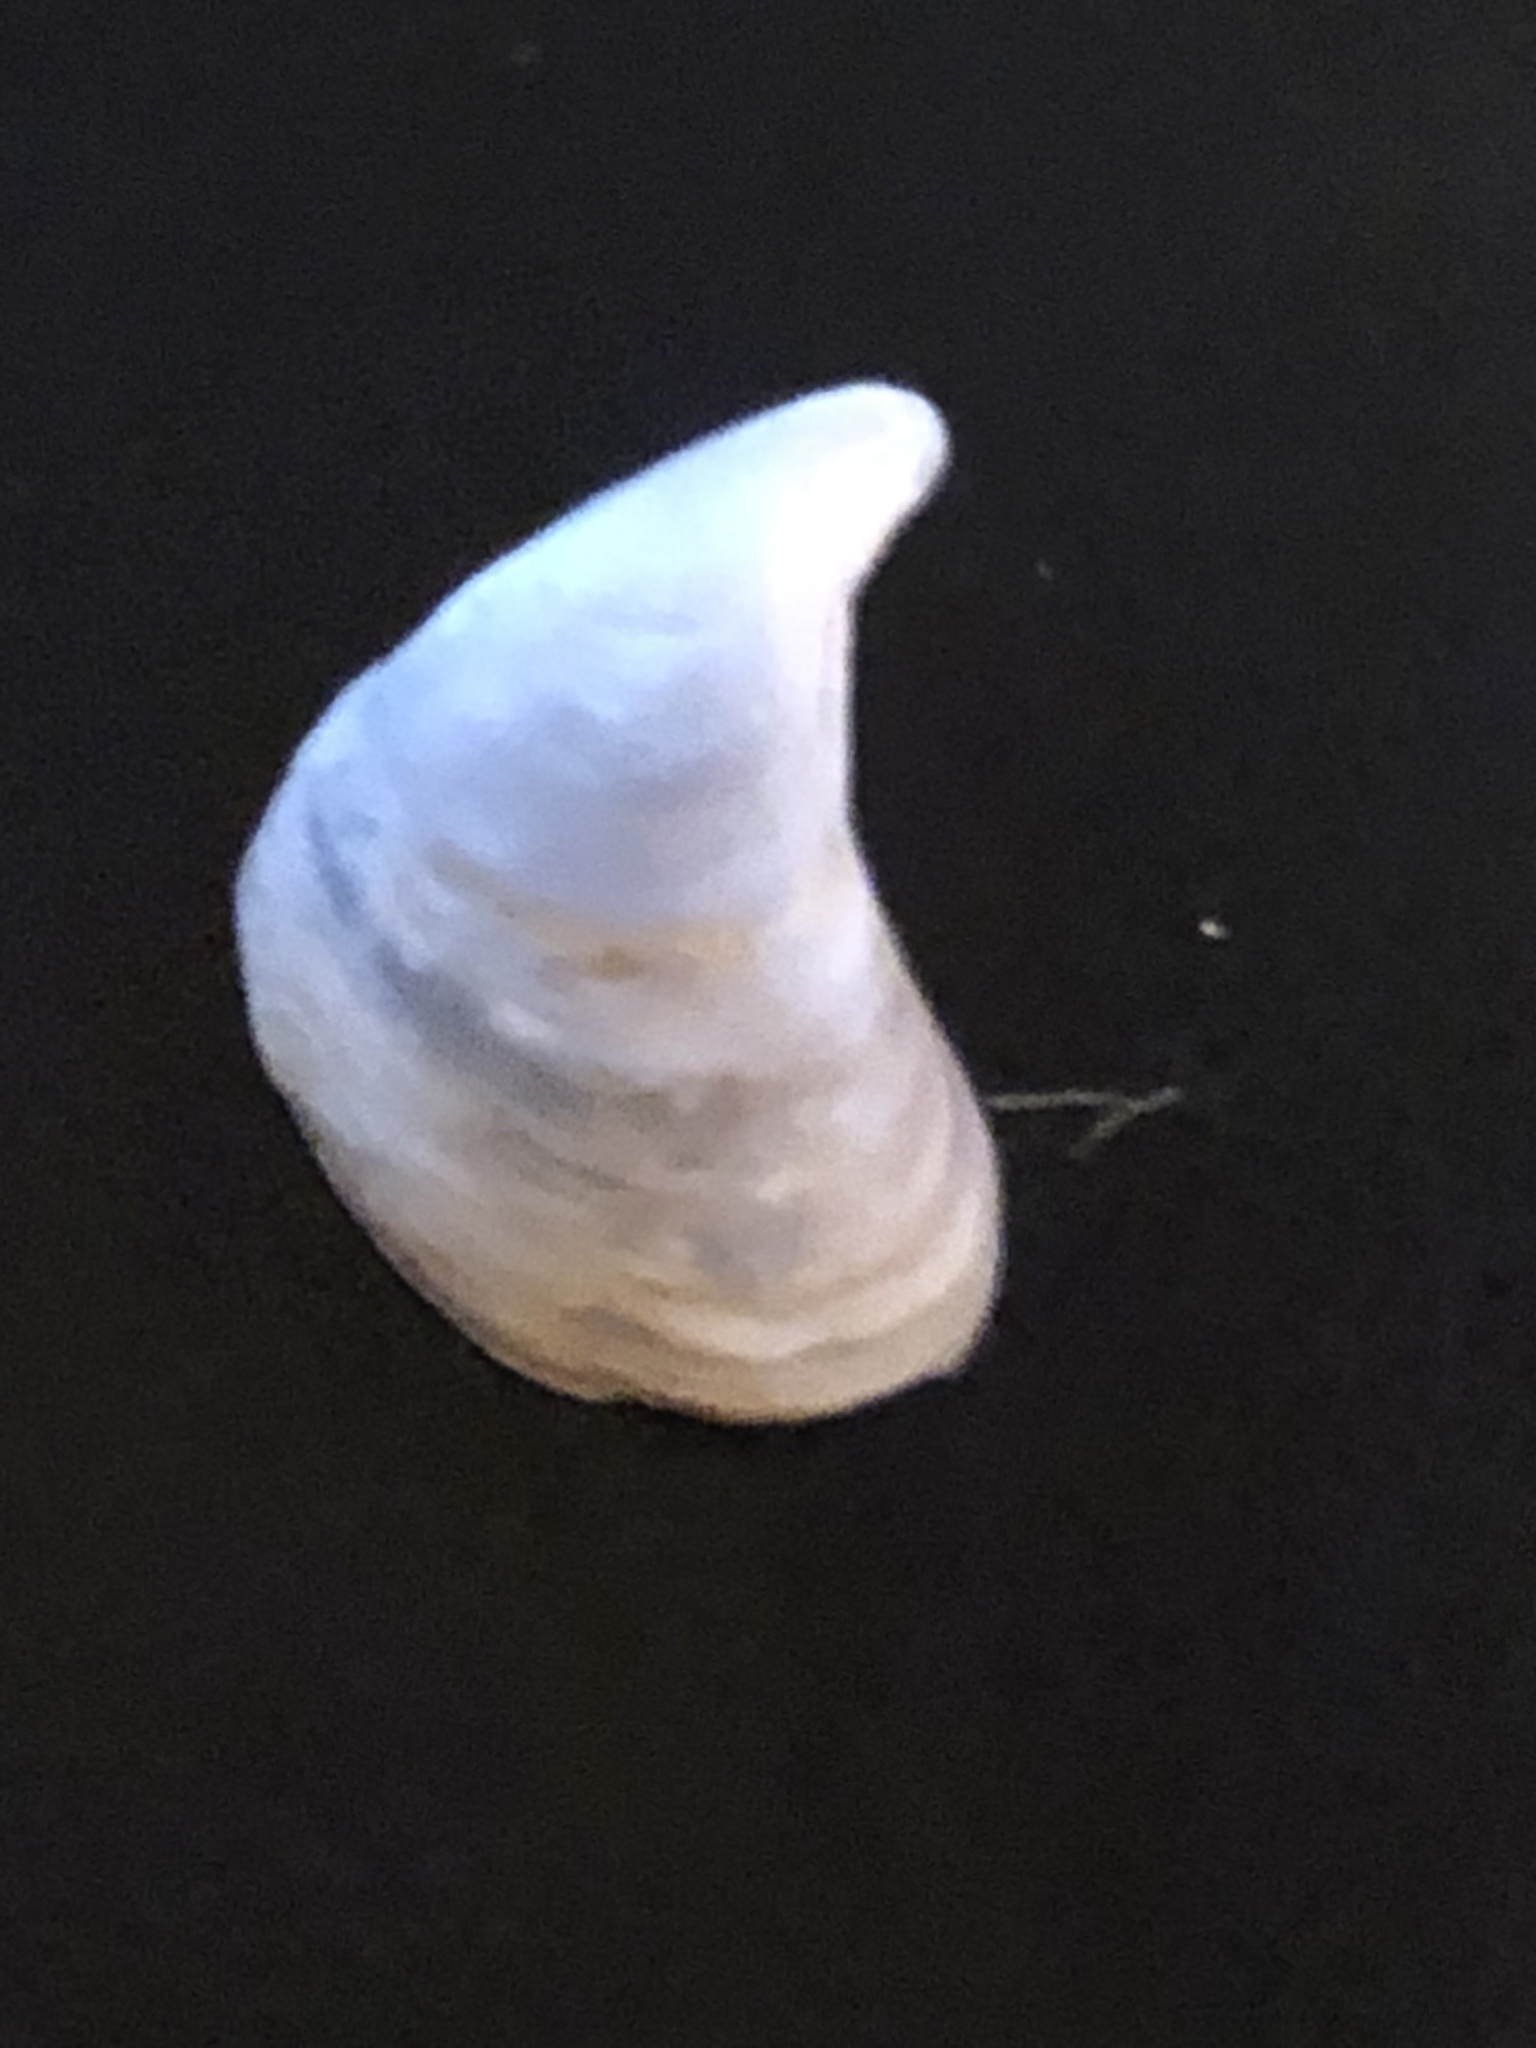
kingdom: Animalia
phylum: Mollusca
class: Bivalvia
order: Myida
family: Dreissenidae
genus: Dreissena
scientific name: Dreissena bugensis
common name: Quagga mussel
